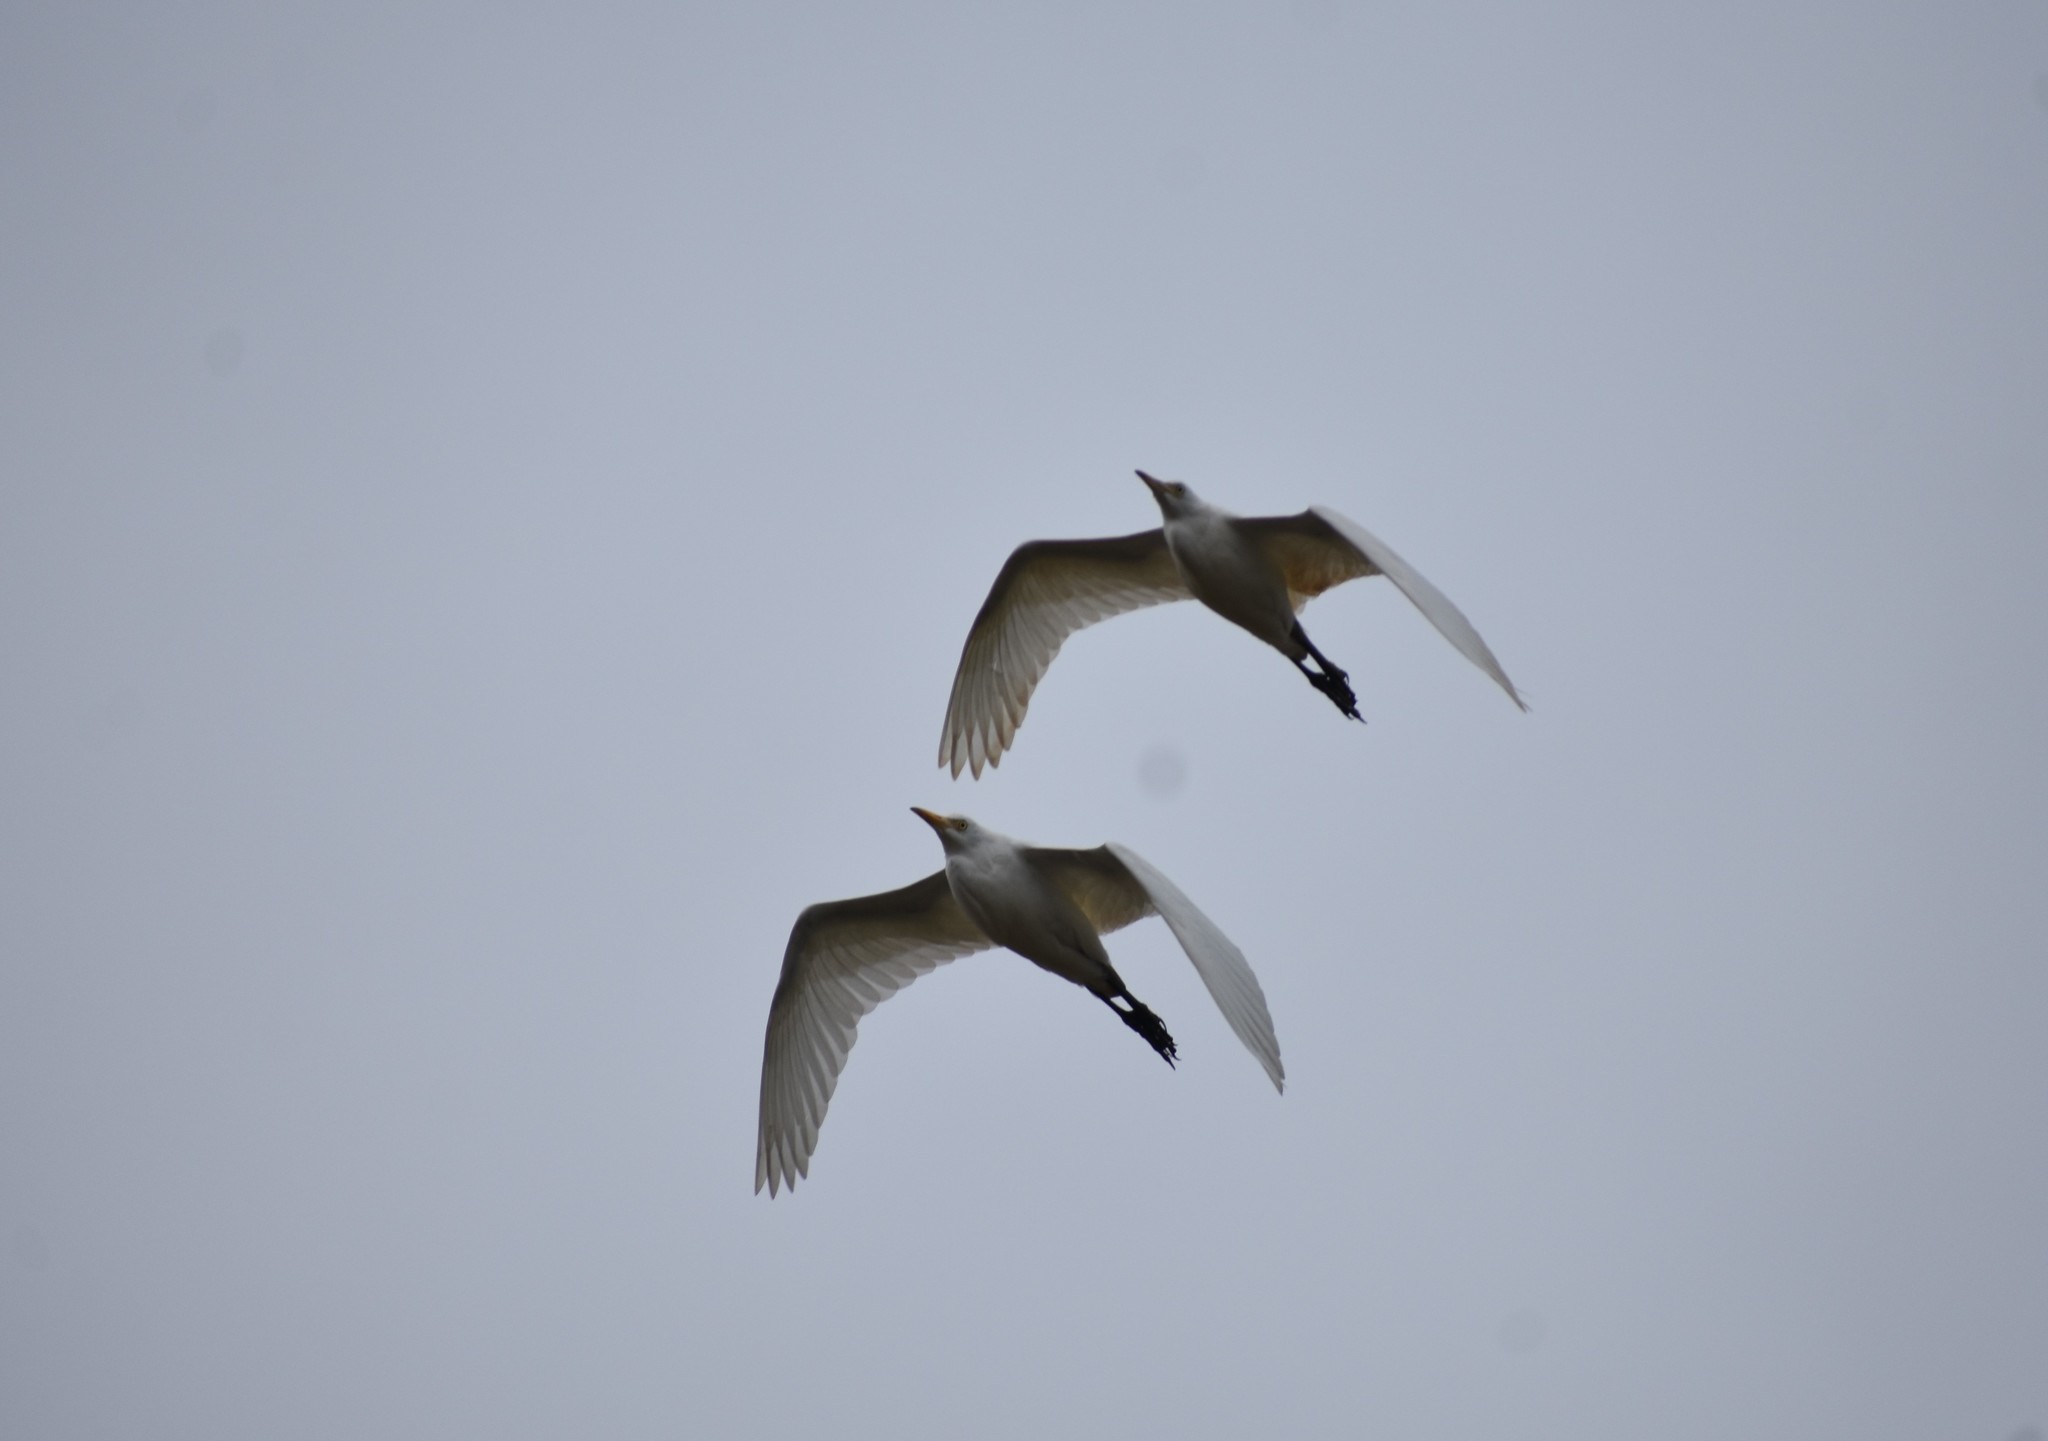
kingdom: Animalia
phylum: Chordata
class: Aves
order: Pelecaniformes
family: Ardeidae
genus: Bubulcus
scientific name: Bubulcus ibis
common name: Cattle egret
